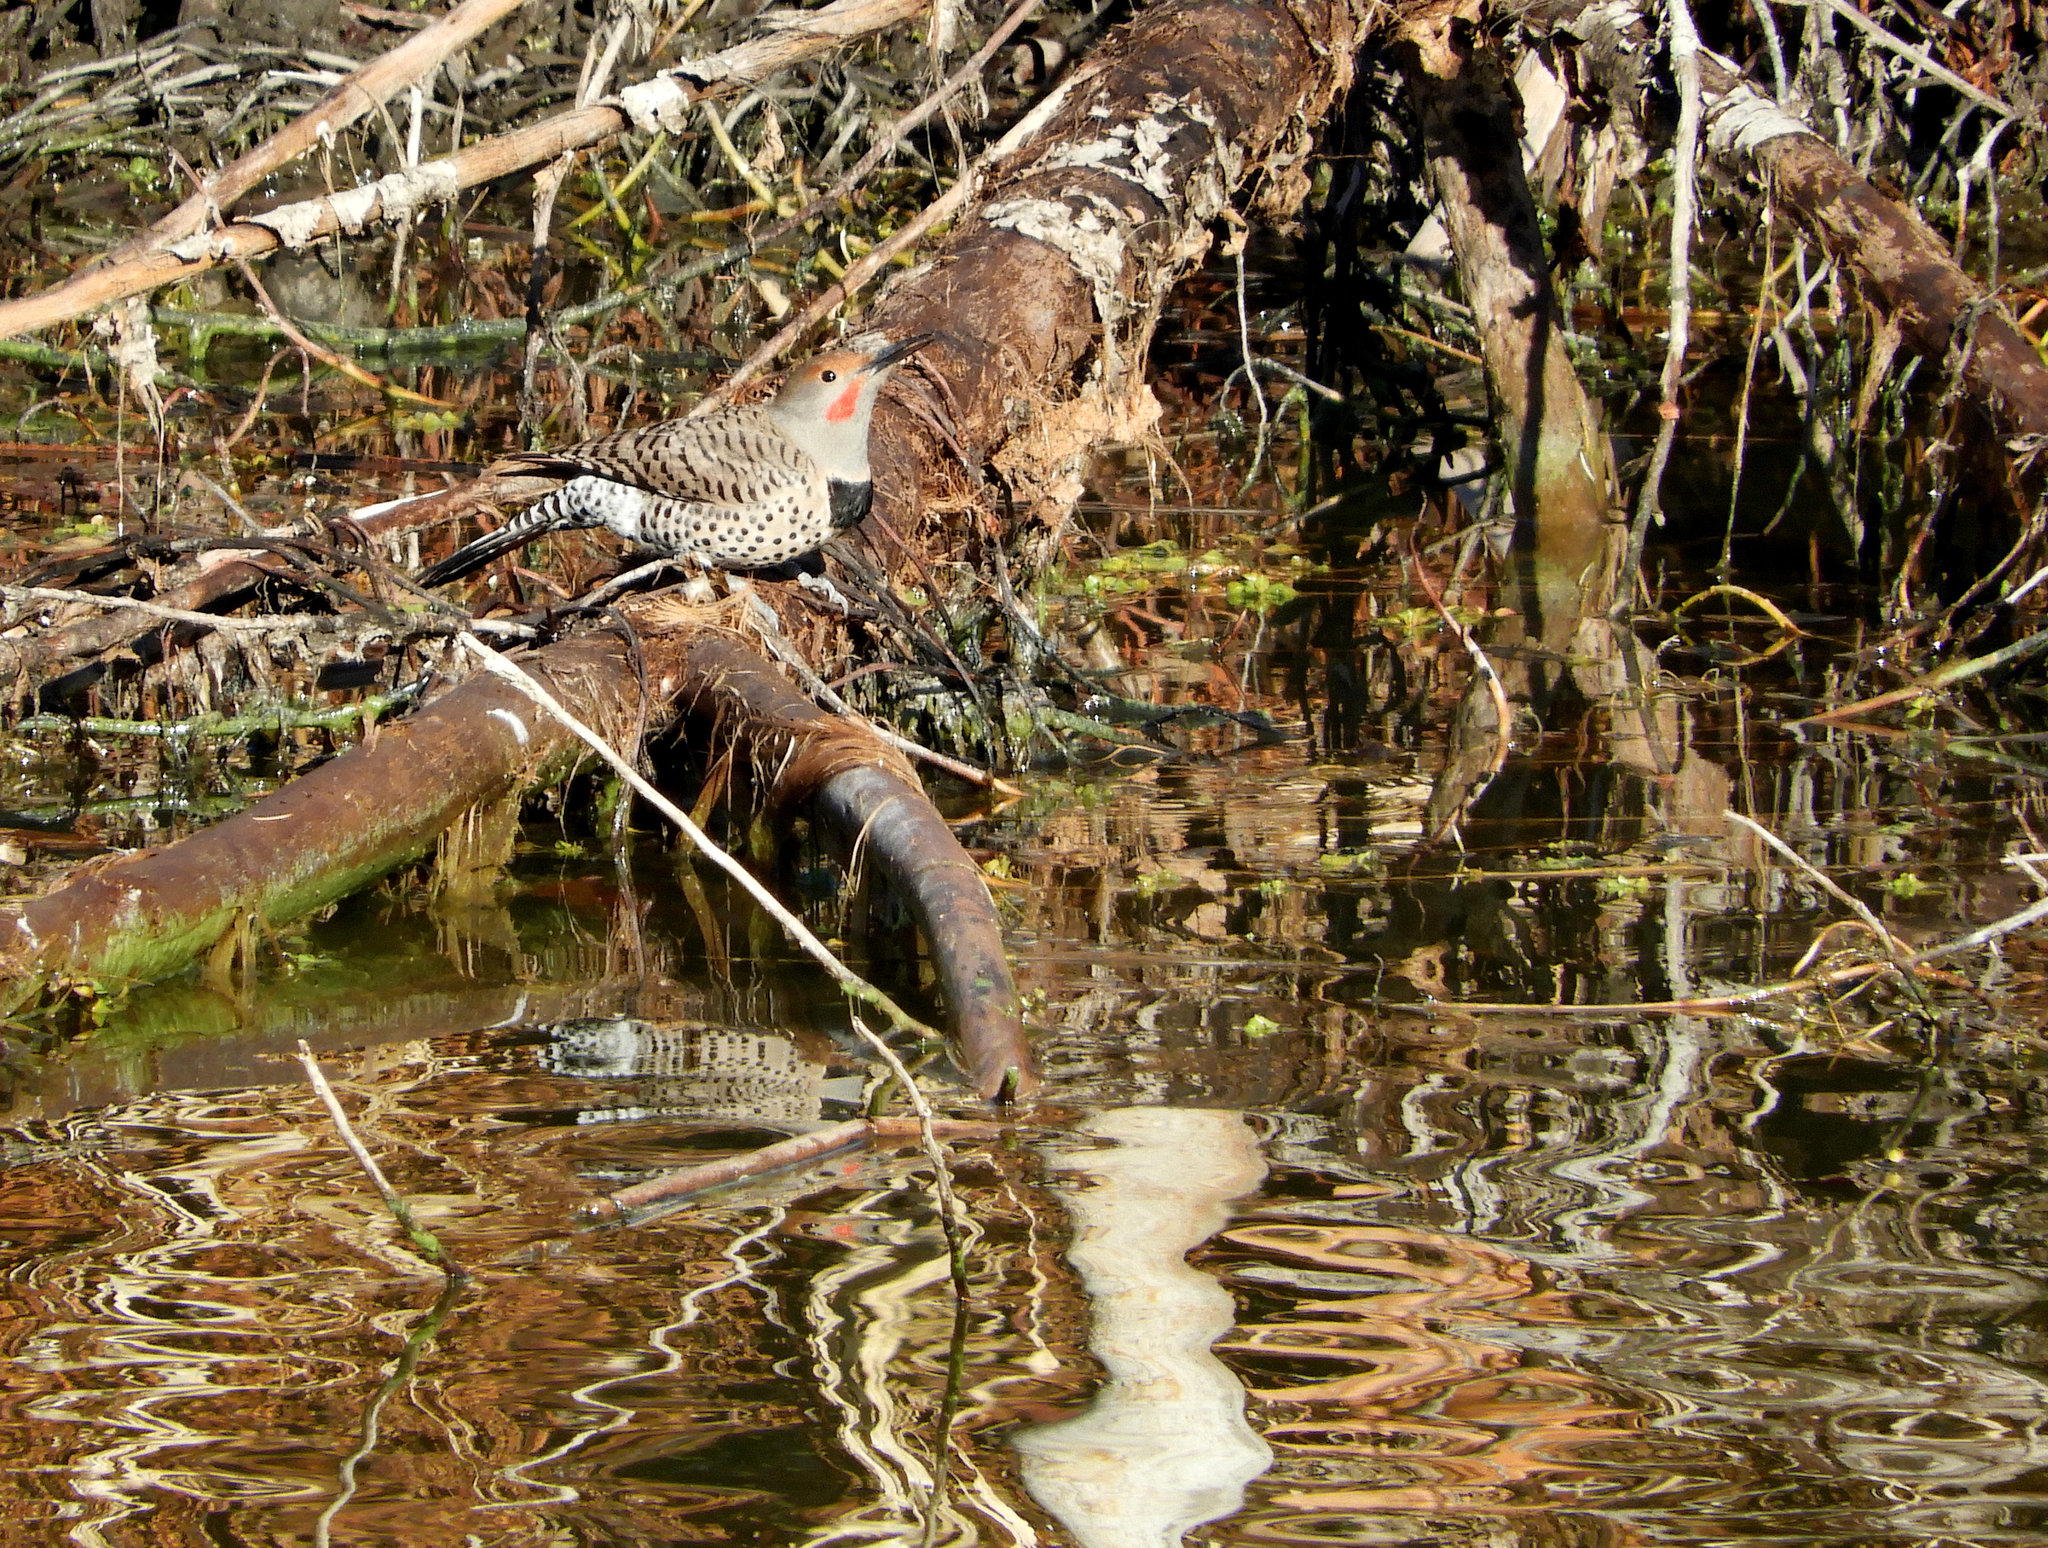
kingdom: Animalia
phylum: Chordata
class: Aves
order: Piciformes
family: Picidae
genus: Colaptes
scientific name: Colaptes auratus
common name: Northern flicker
